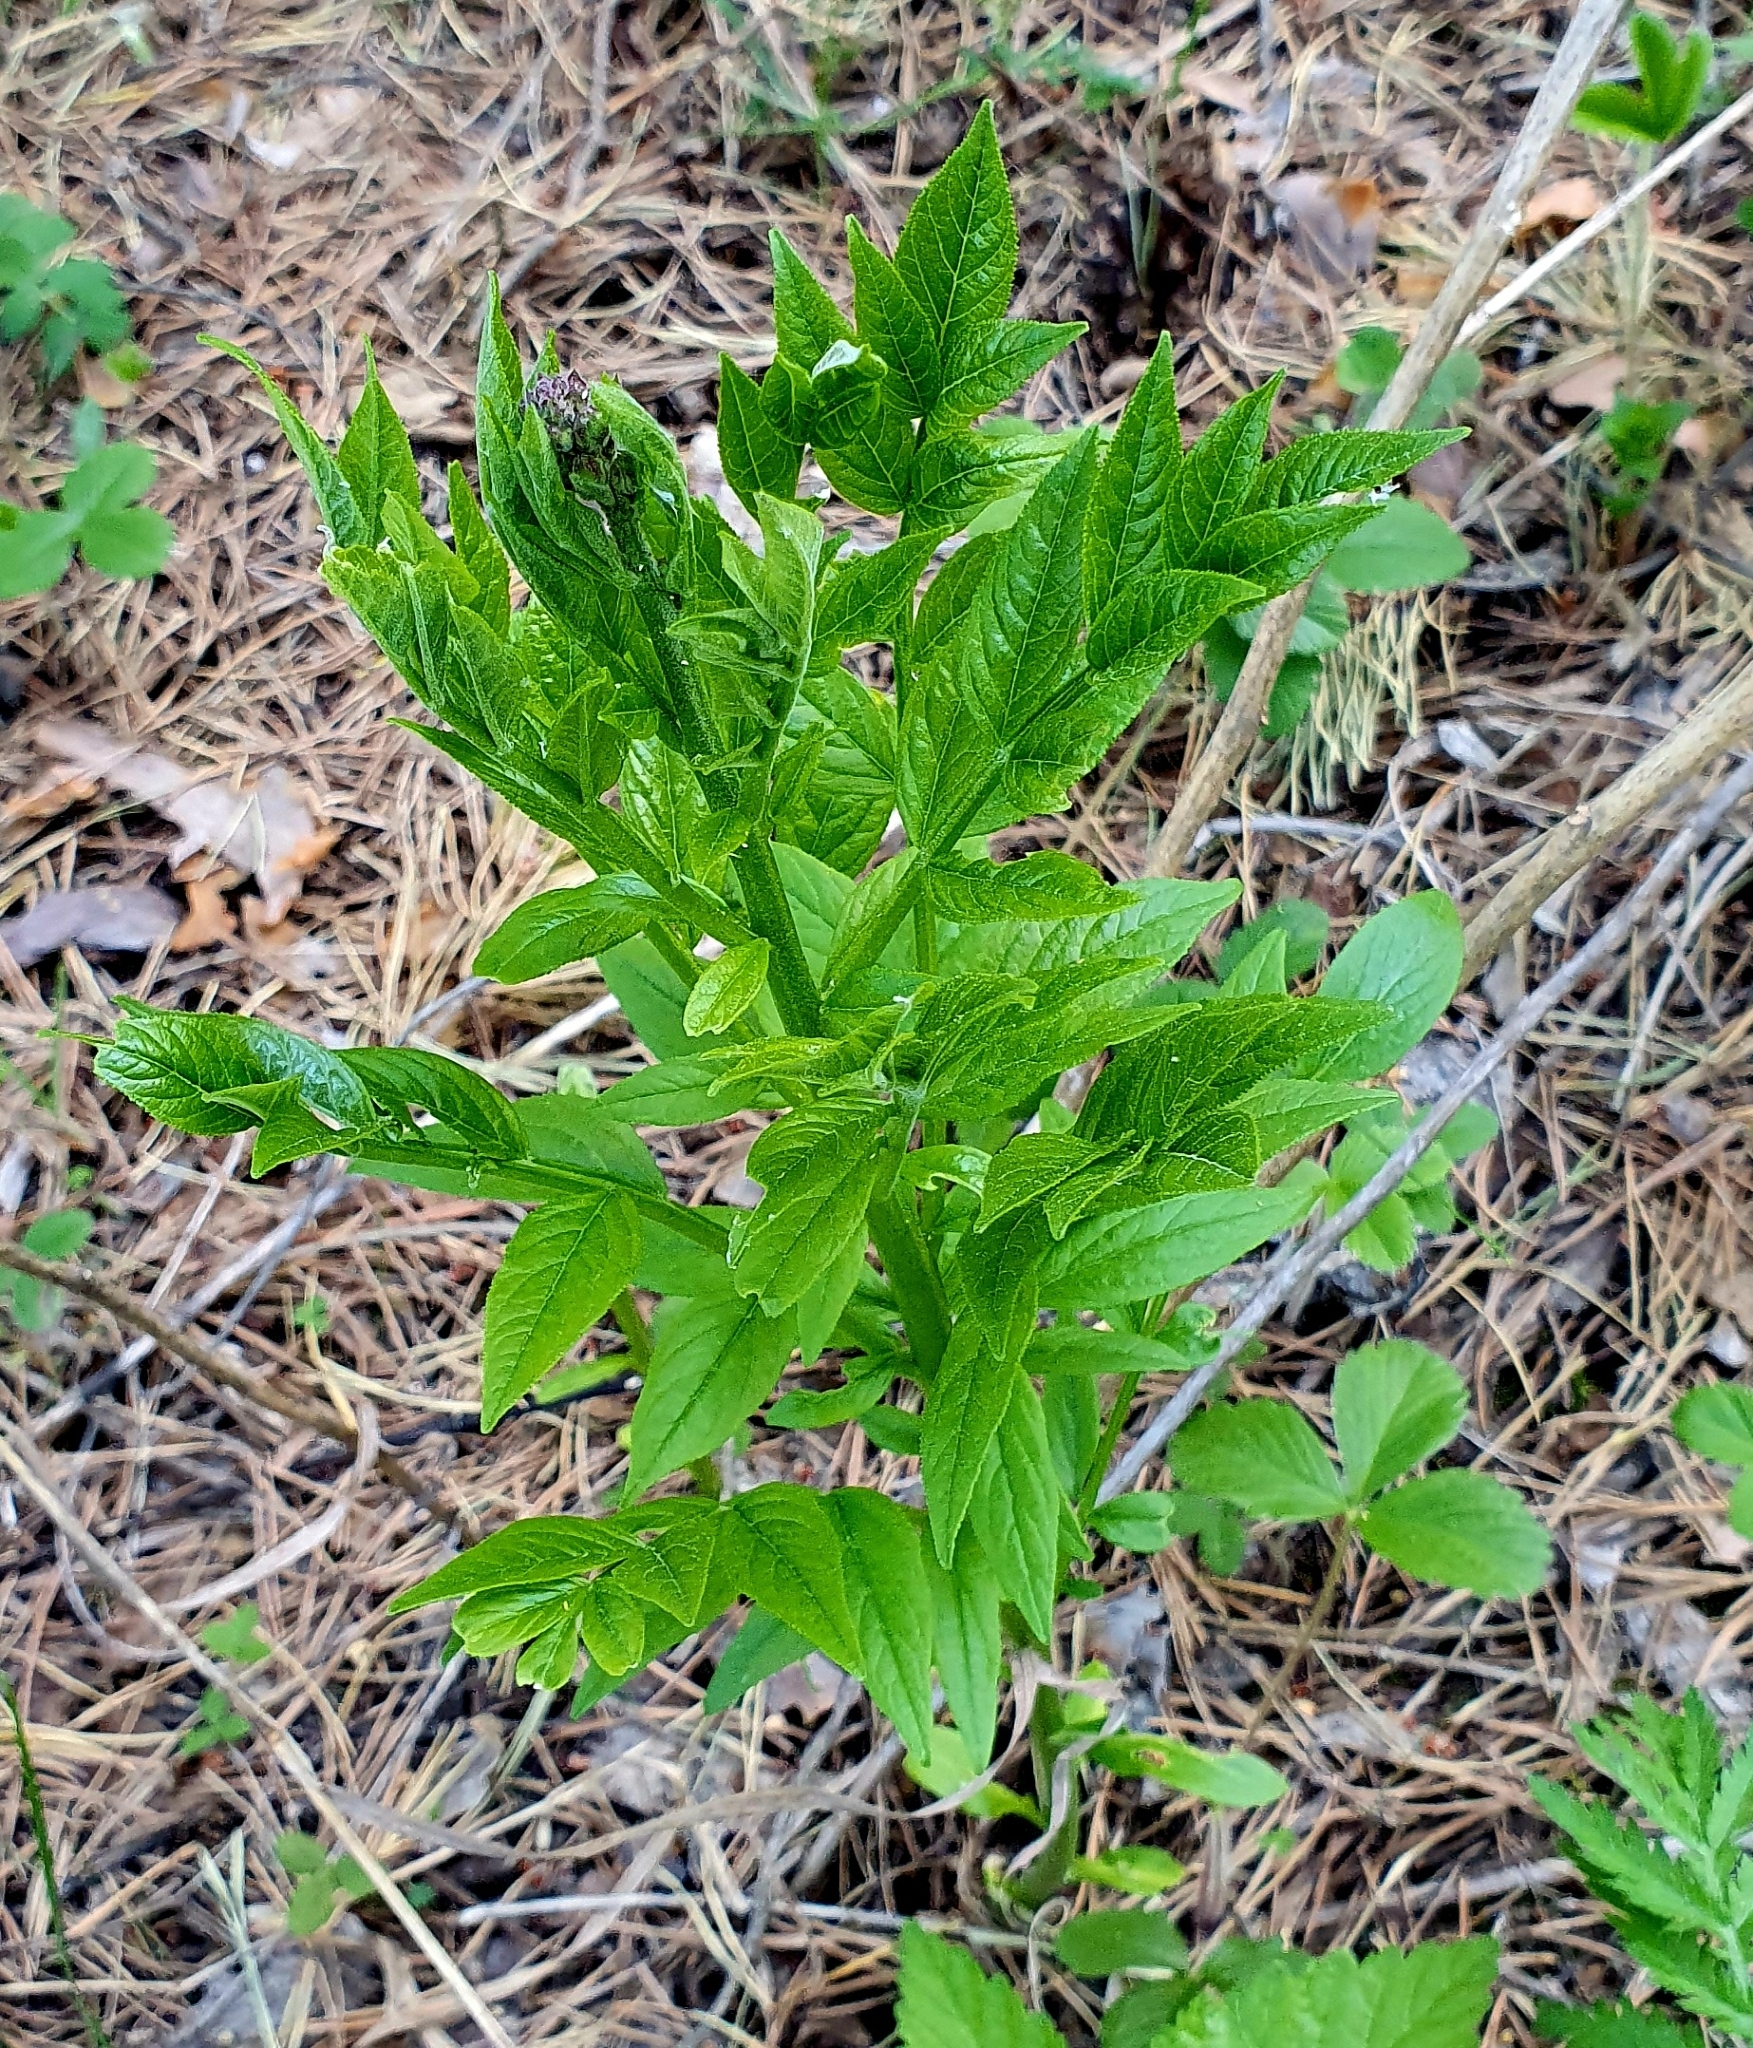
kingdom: Plantae
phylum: Tracheophyta
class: Magnoliopsida
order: Sapindales
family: Rutaceae
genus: Dictamnus
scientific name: Dictamnus albus
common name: Gasplant
